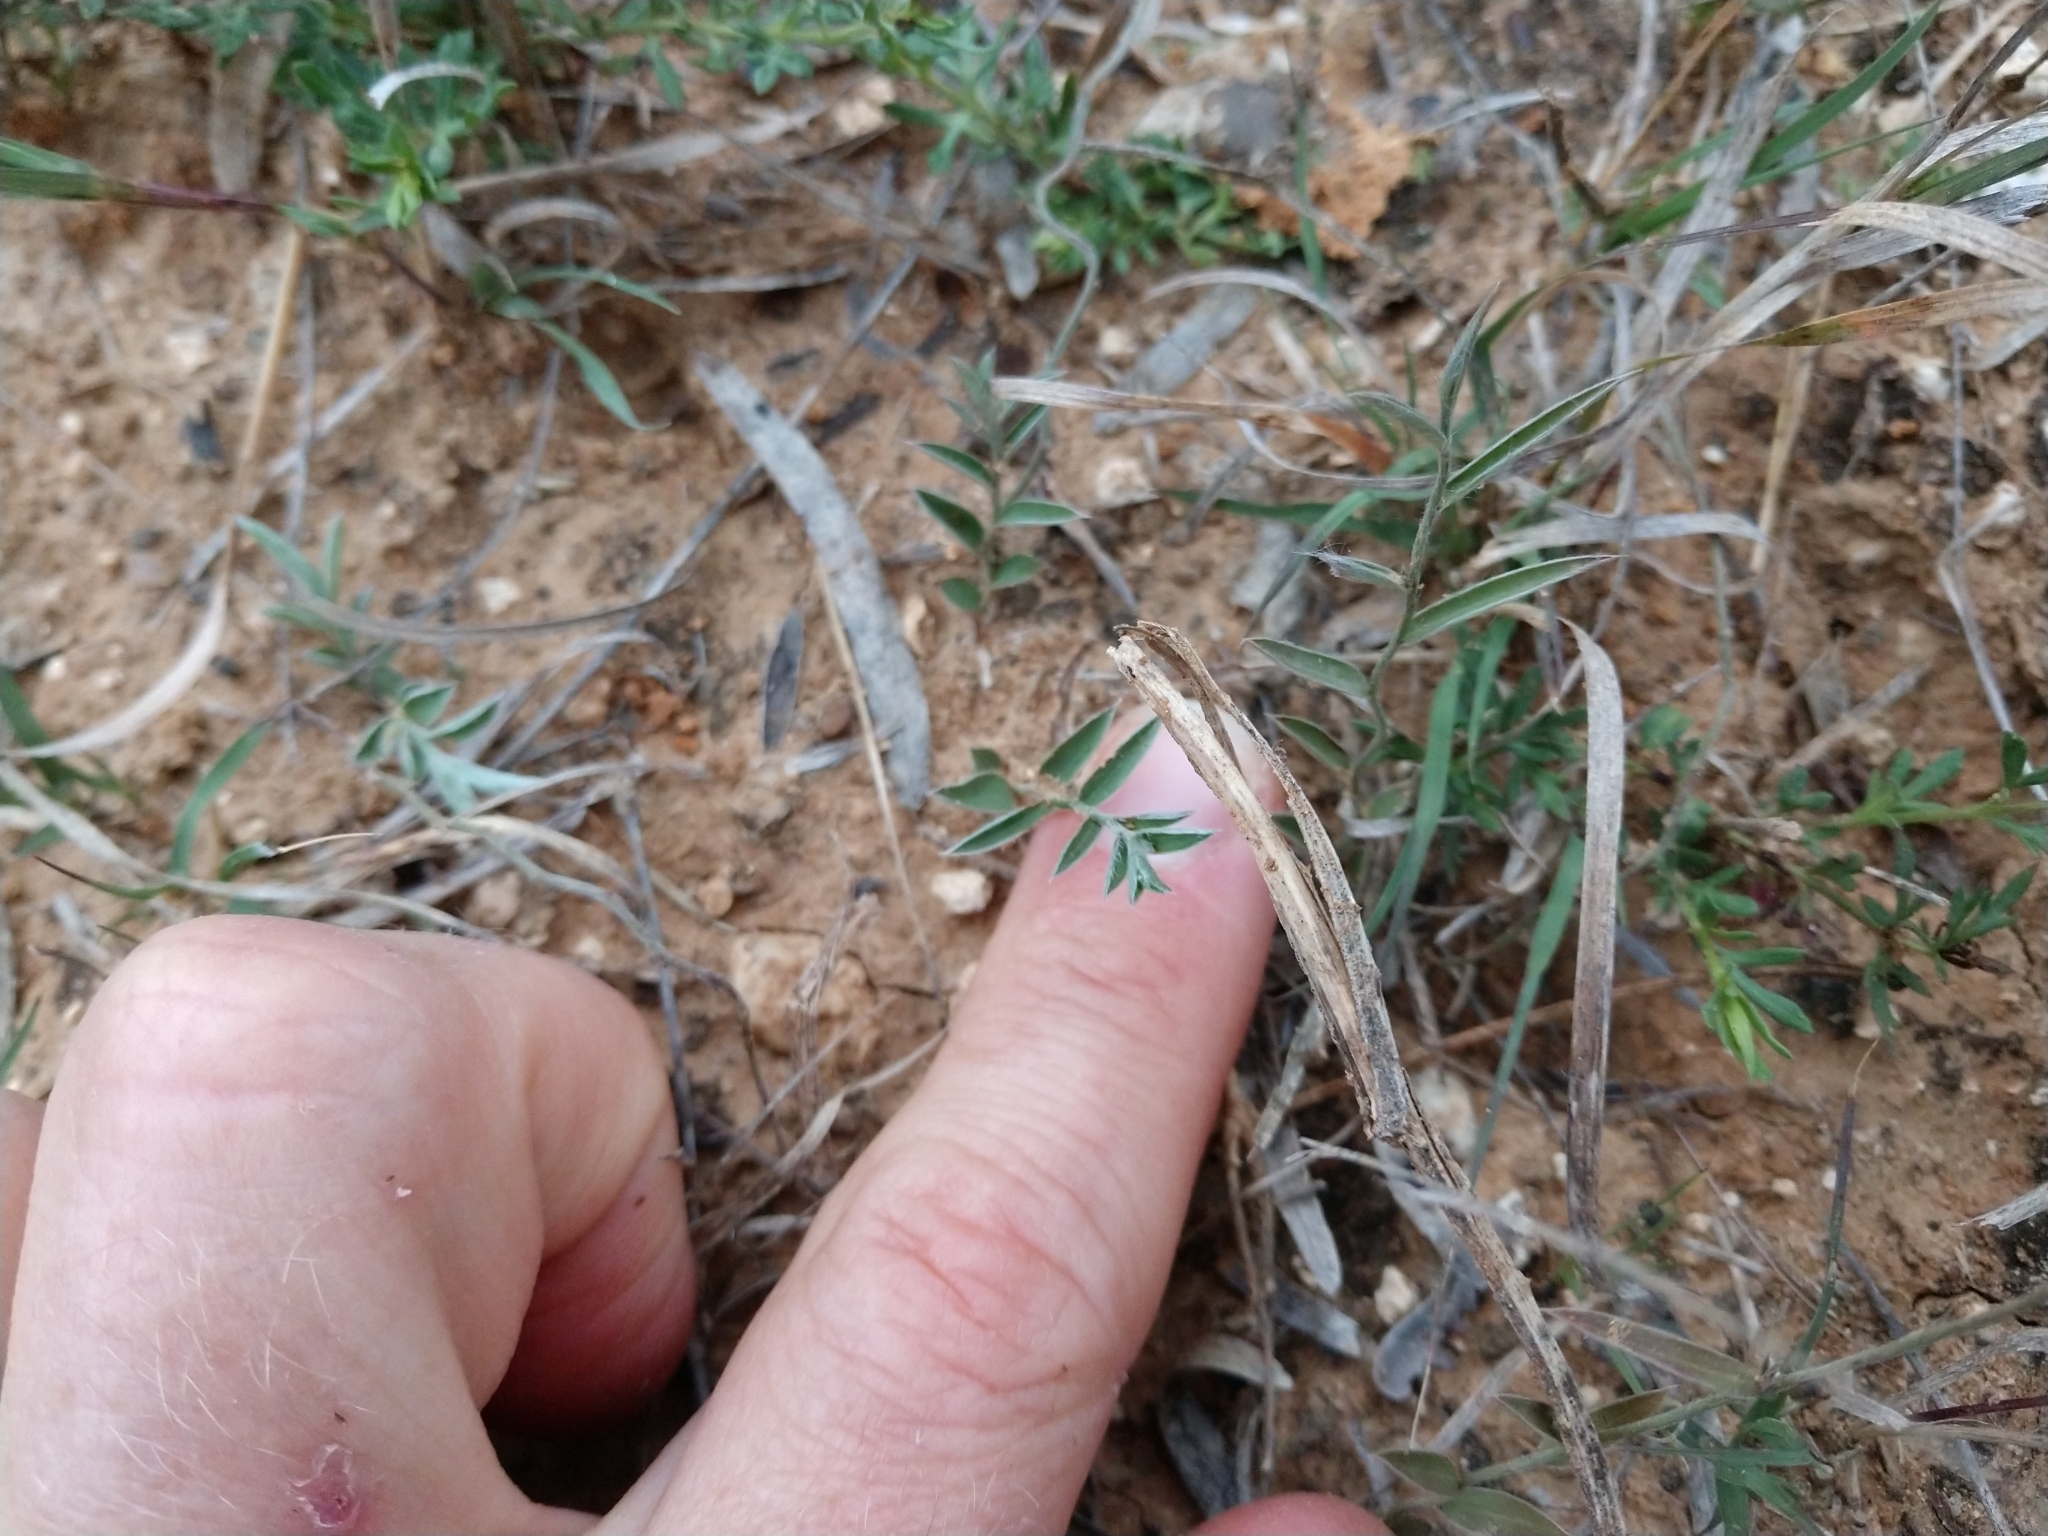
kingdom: Plantae
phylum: Tracheophyta
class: Magnoliopsida
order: Solanales
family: Convolvulaceae
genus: Evolvulus
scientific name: Evolvulus sericeus
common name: Blue dots
